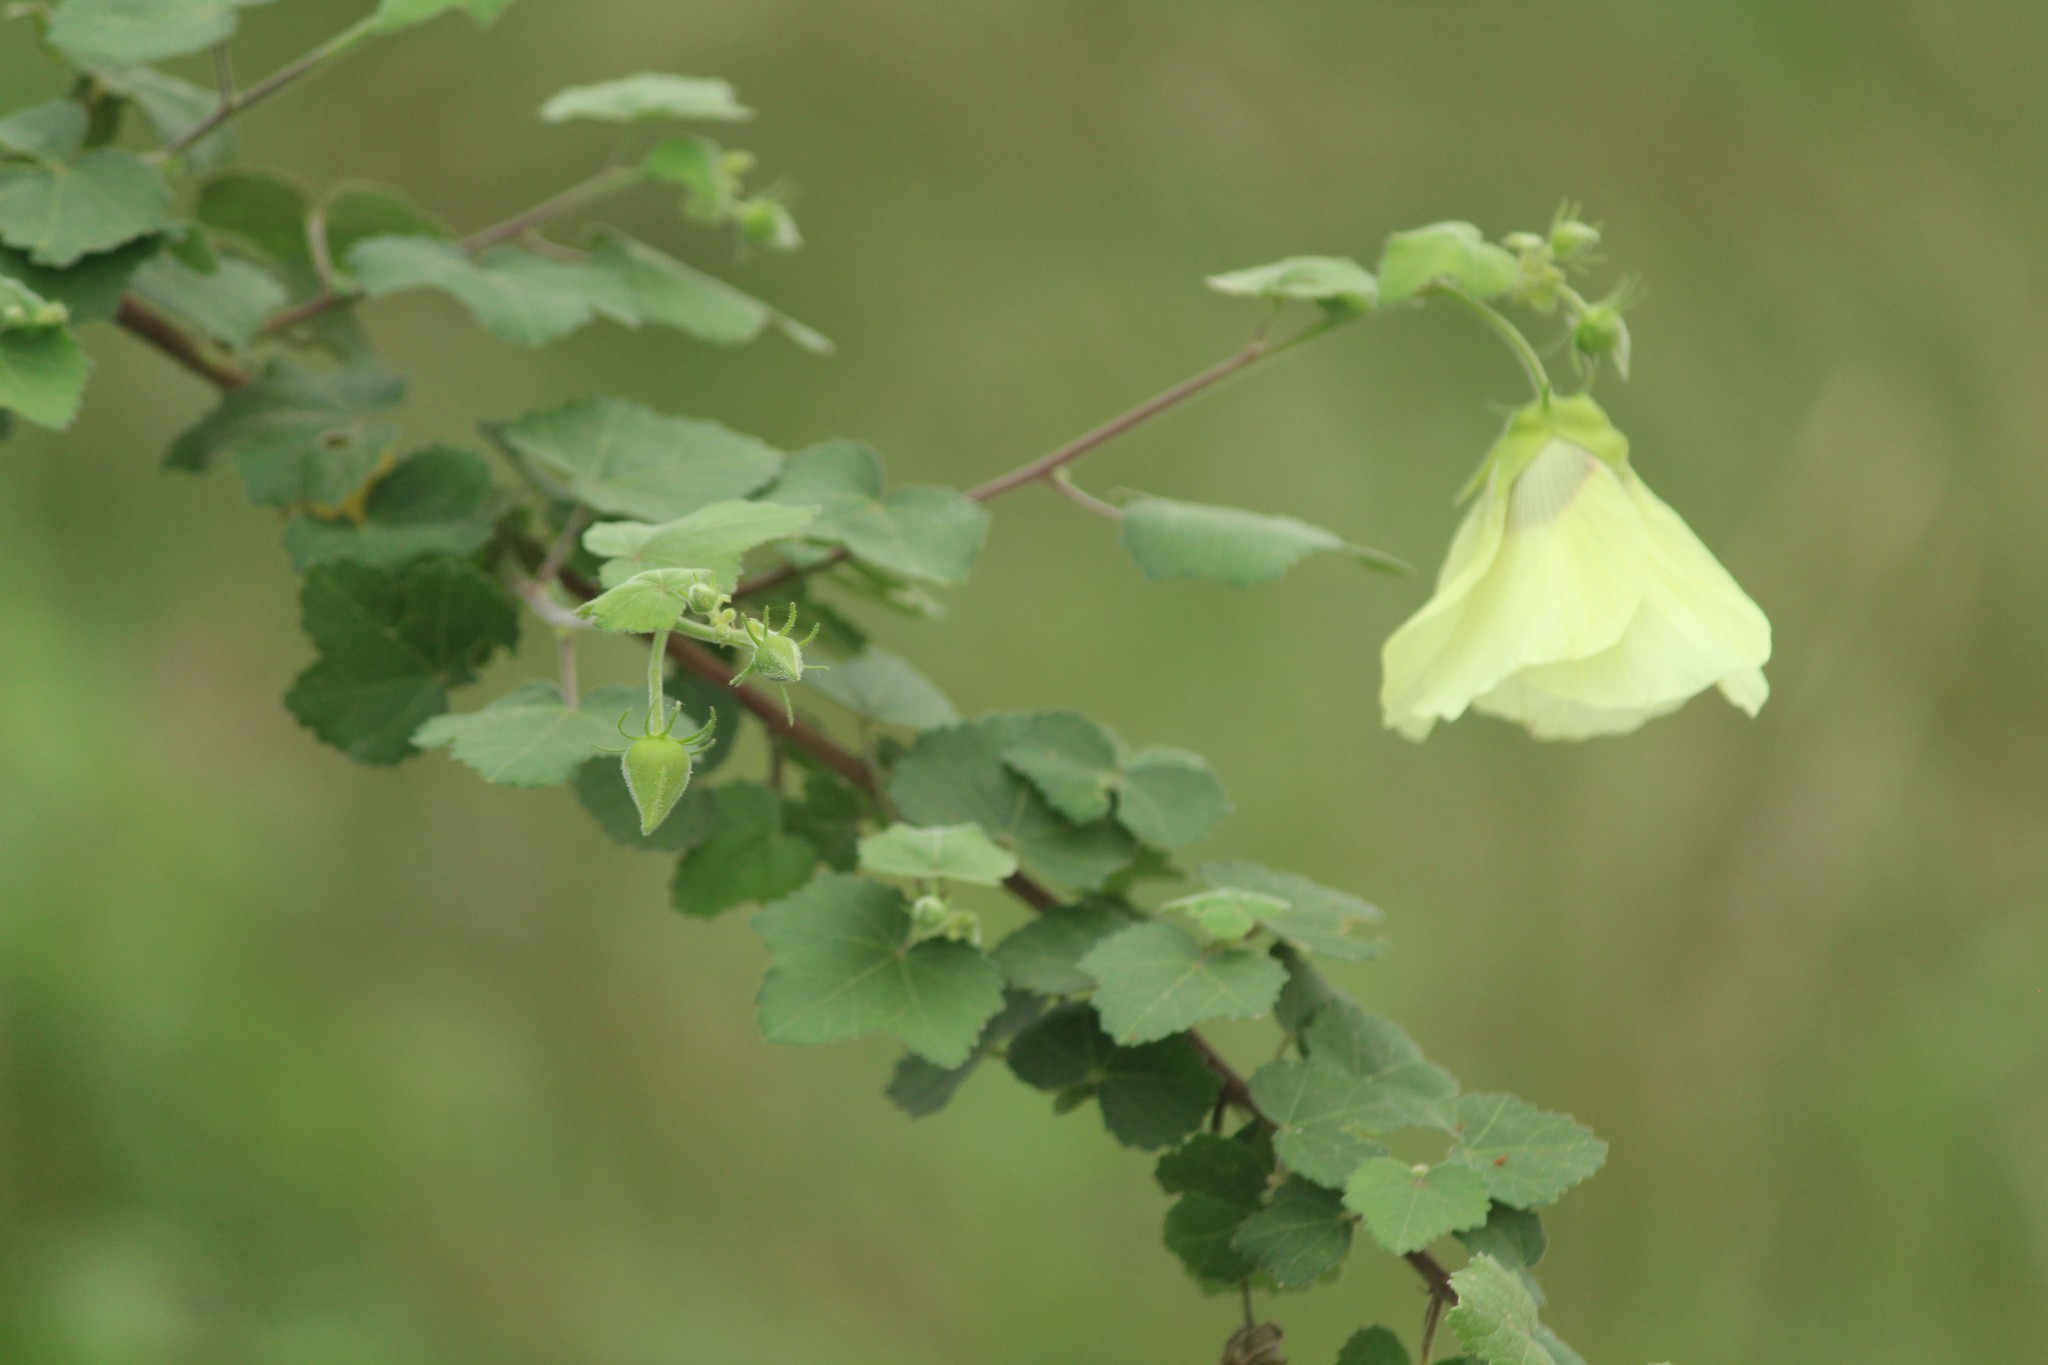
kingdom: Plantae
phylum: Tracheophyta
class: Magnoliopsida
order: Malvales
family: Malvaceae
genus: Hibiscus
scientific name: Hibiscus vitifolius
